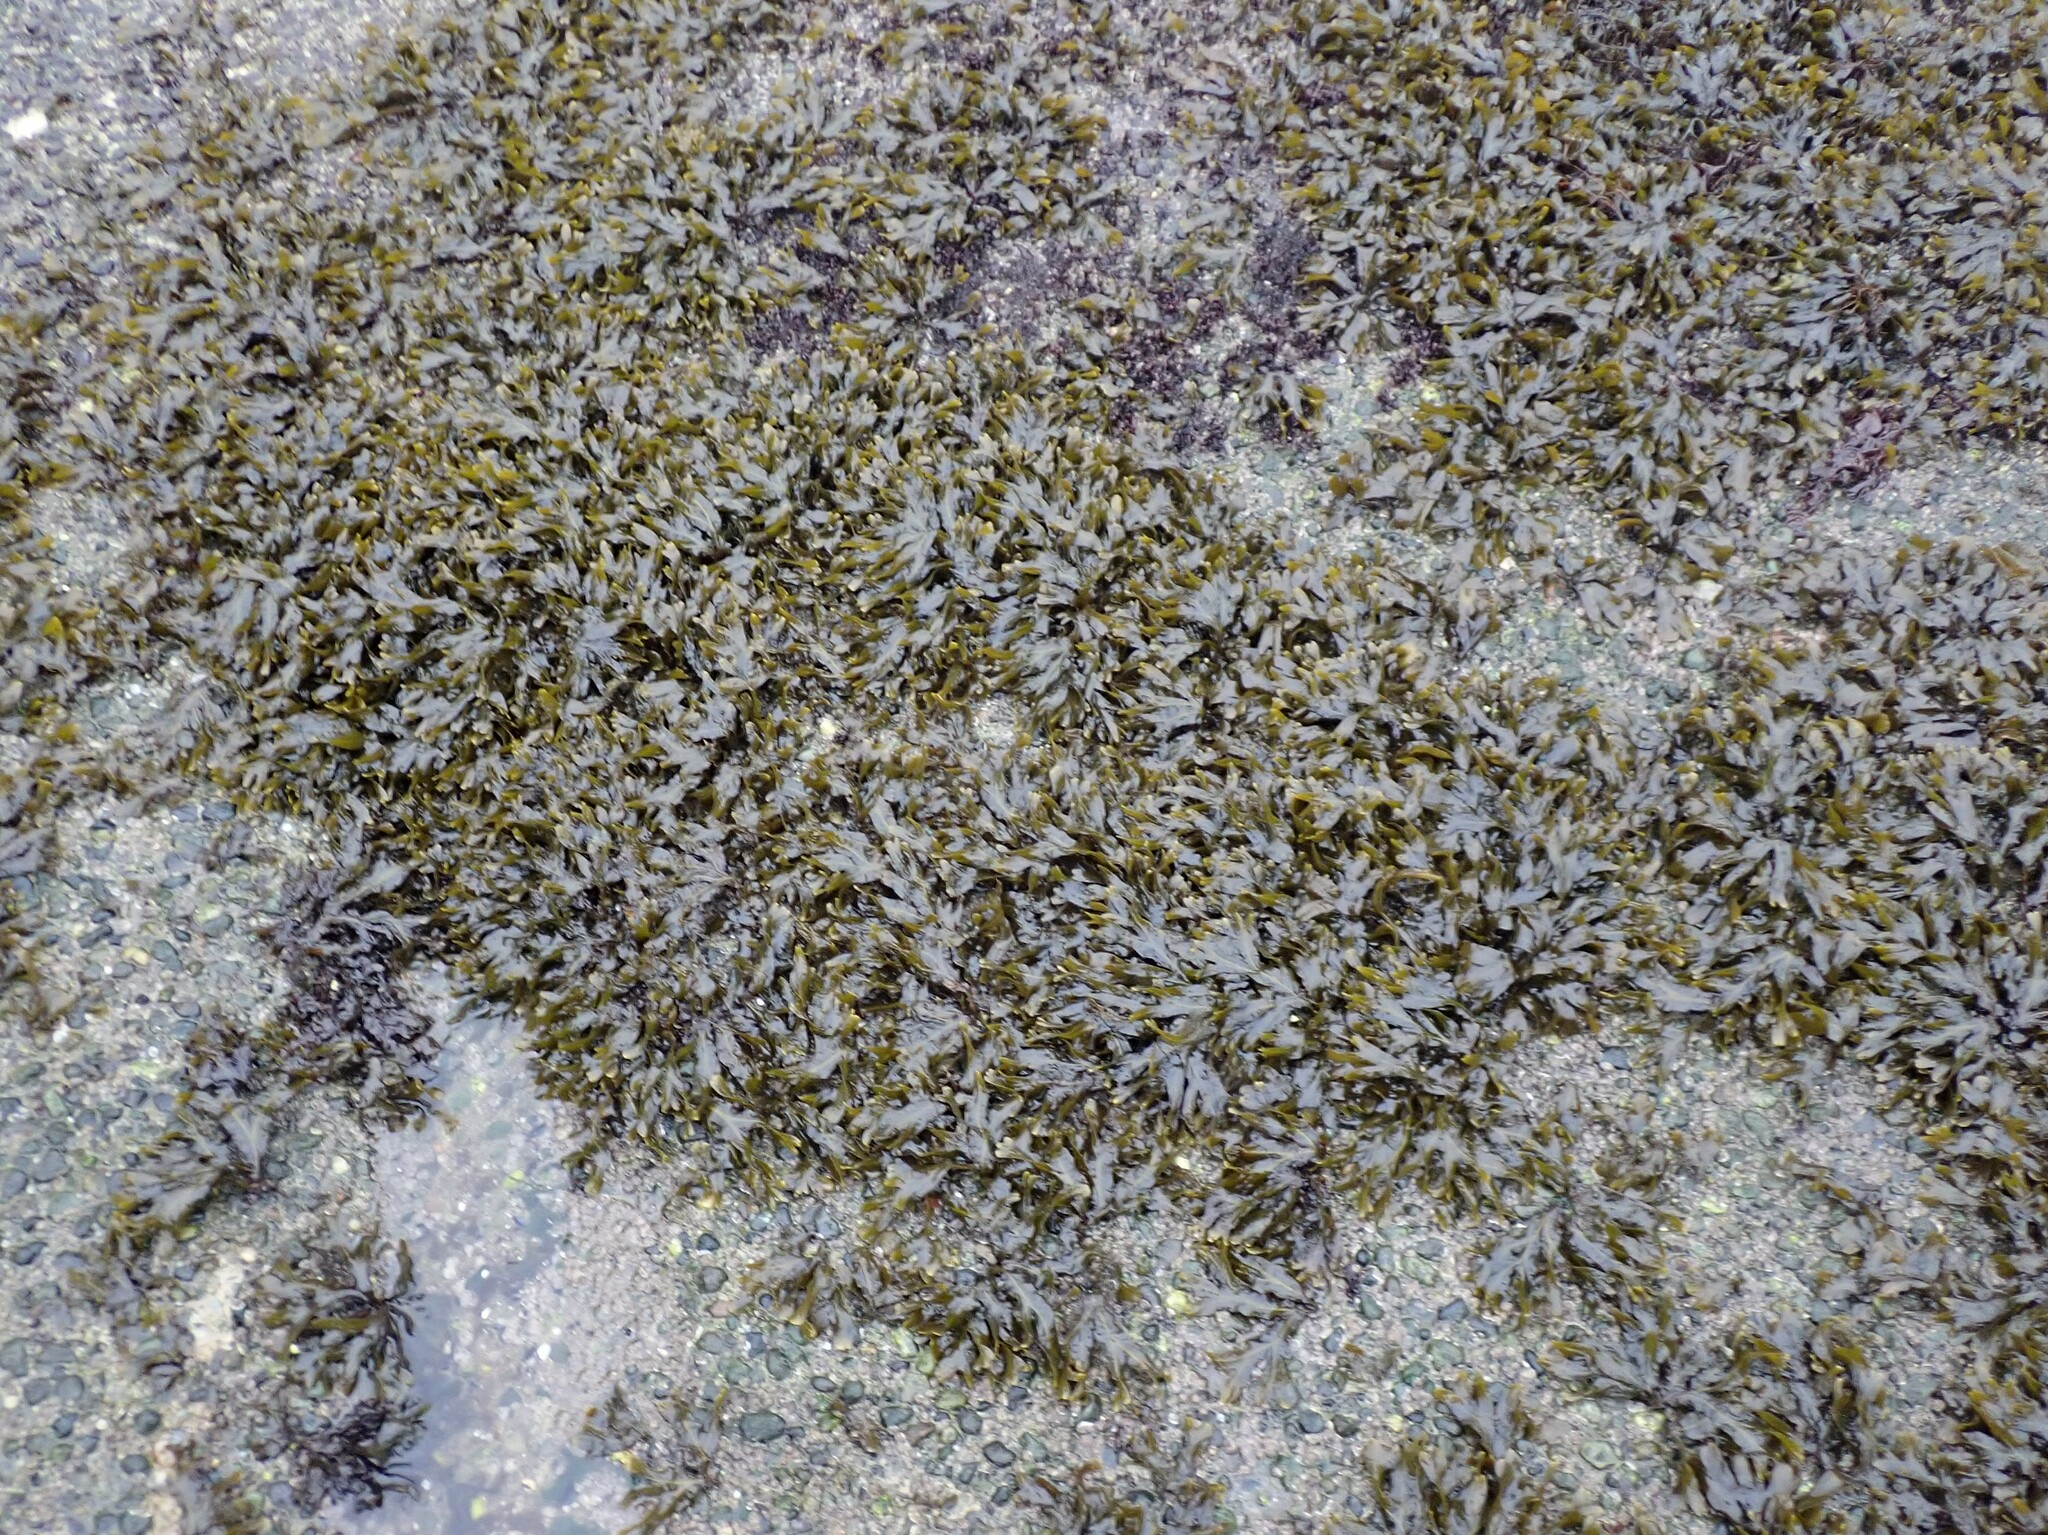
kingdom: Chromista
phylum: Ochrophyta
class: Phaeophyceae
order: Fucales
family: Fucaceae
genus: Fucus
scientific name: Fucus distichus
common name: Rockweed
